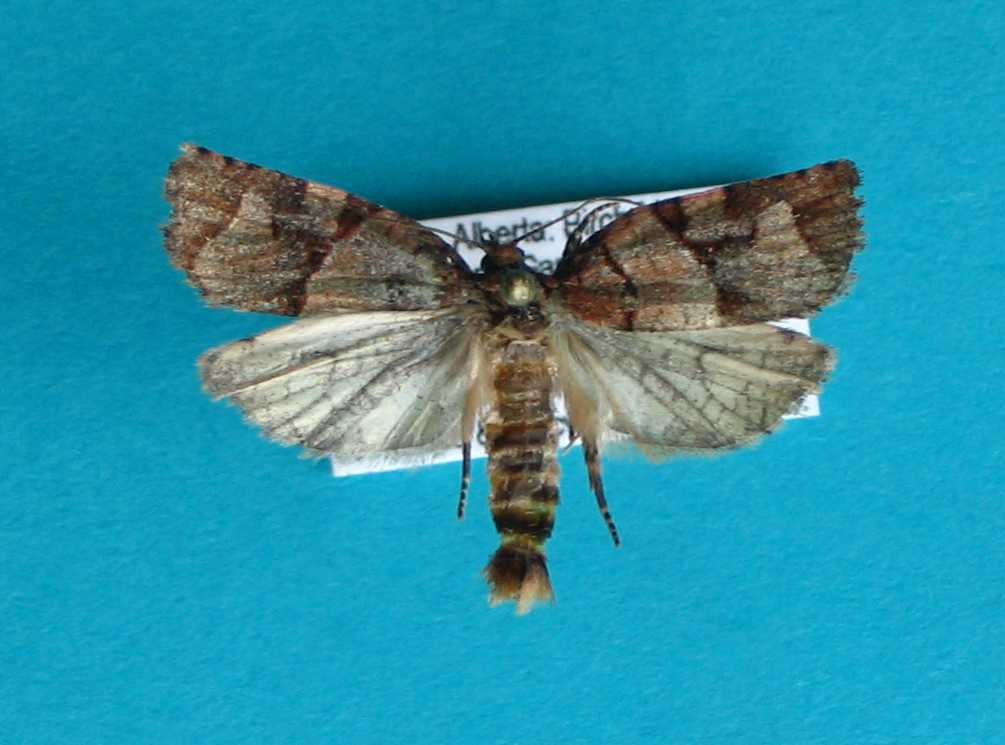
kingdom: Animalia
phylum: Arthropoda
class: Insecta
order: Lepidoptera
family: Tortricidae
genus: Archips
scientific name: Archips alberta
